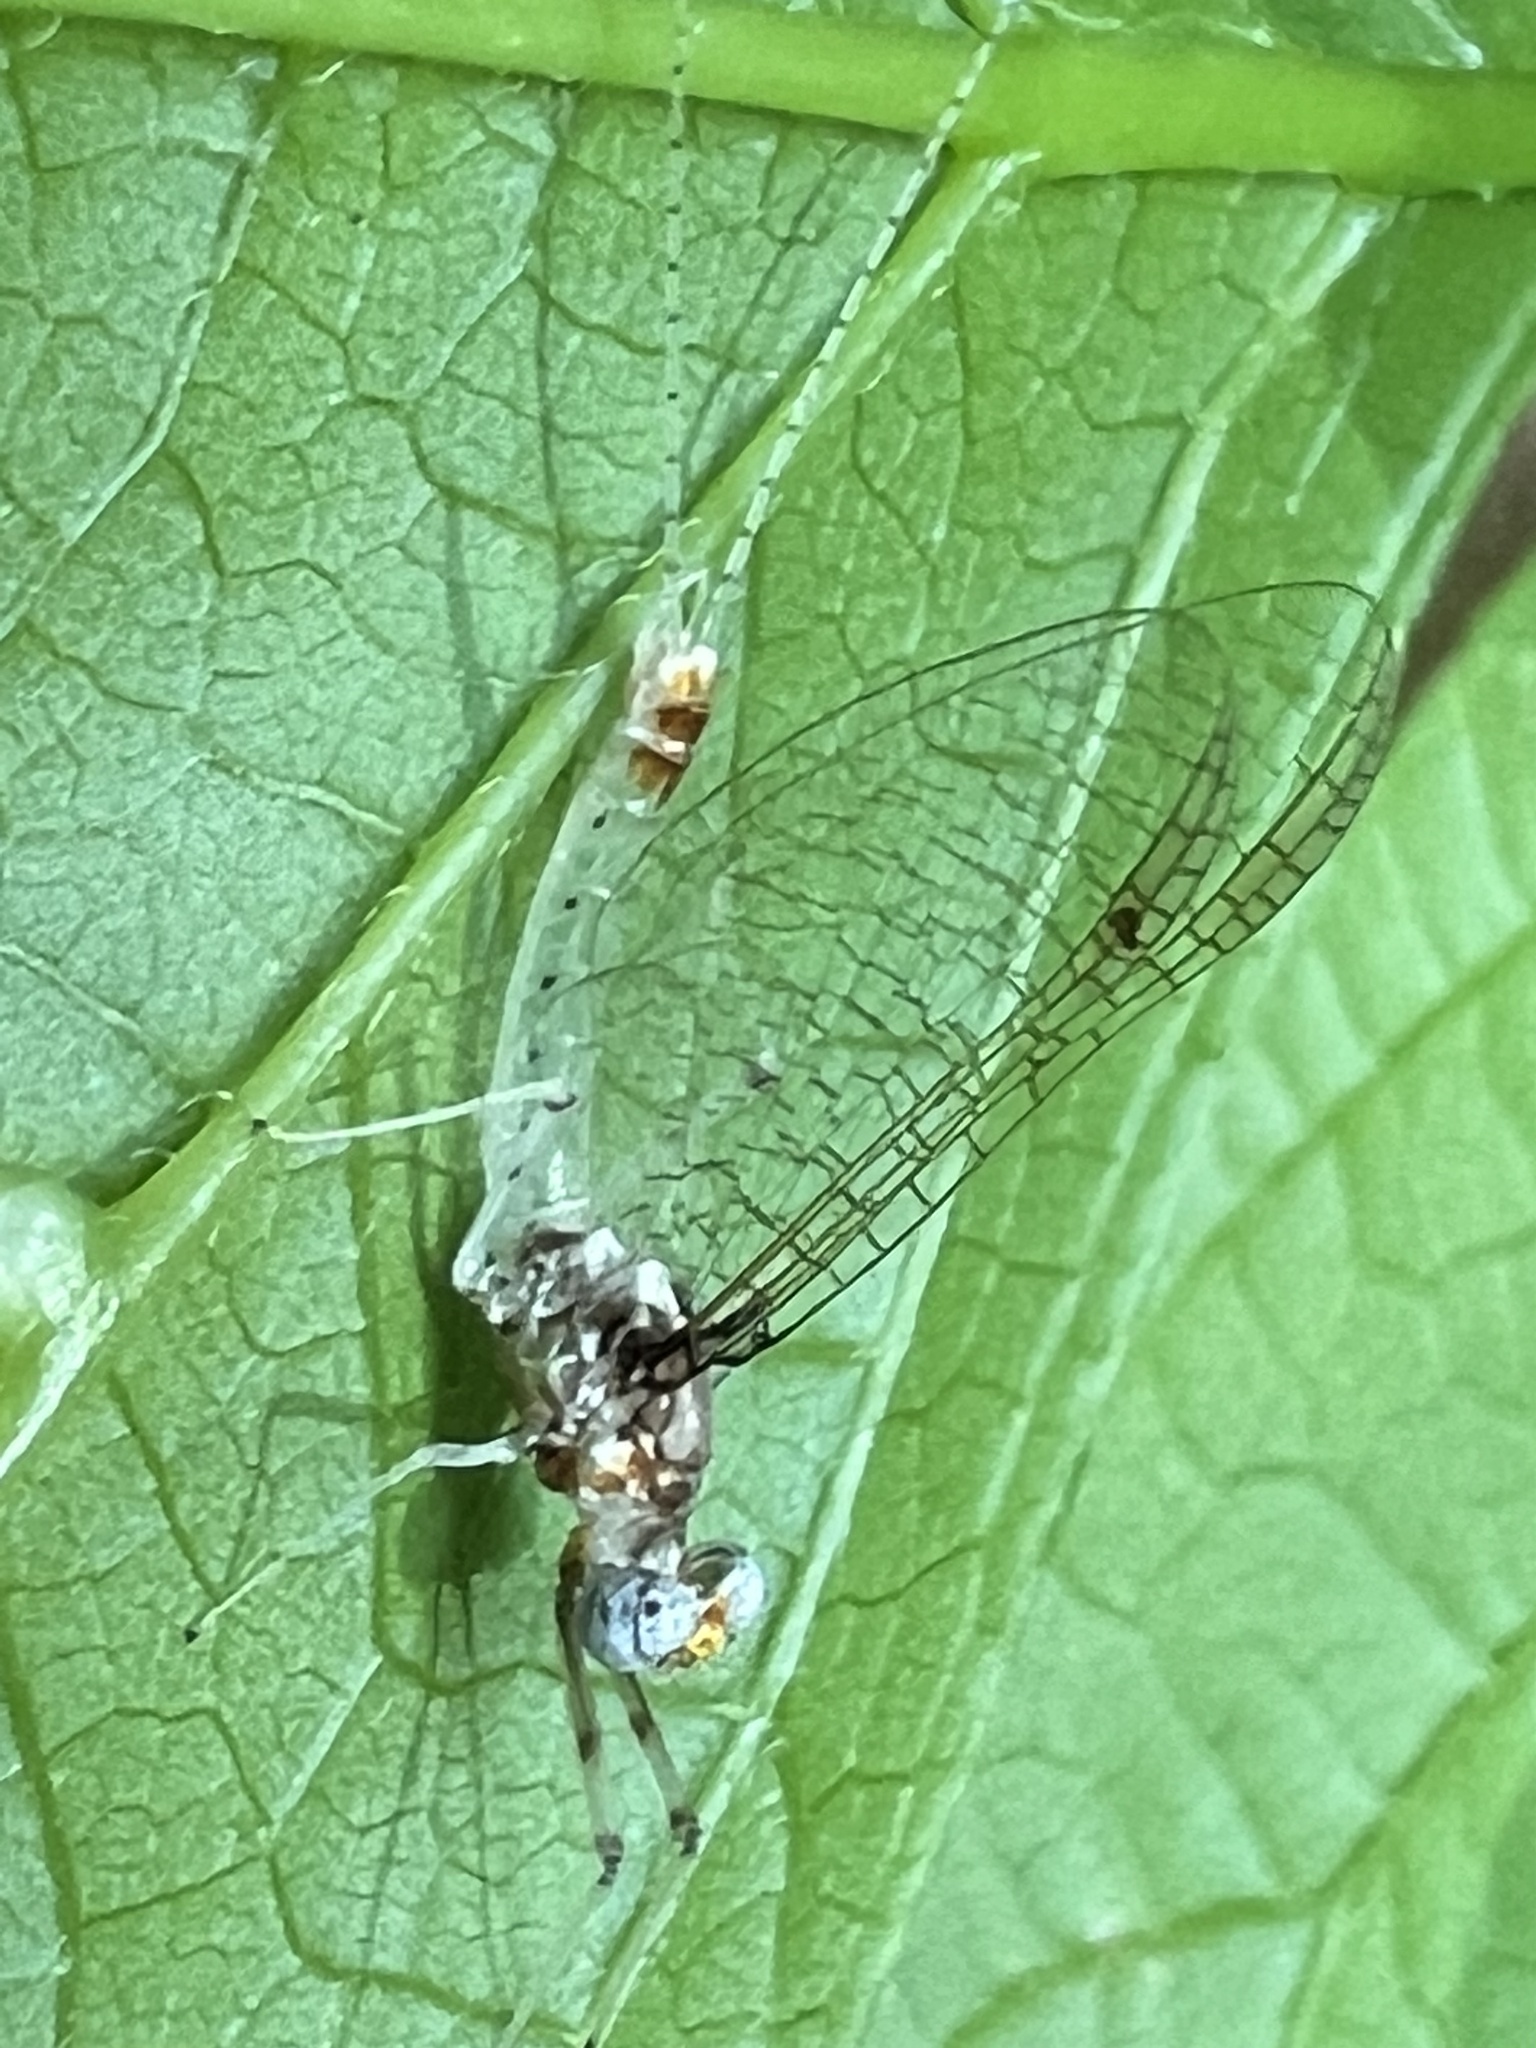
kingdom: Animalia
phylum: Arthropoda
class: Insecta
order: Ephemeroptera
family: Heptageniidae
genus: Maccaffertium
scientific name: Maccaffertium modestum
